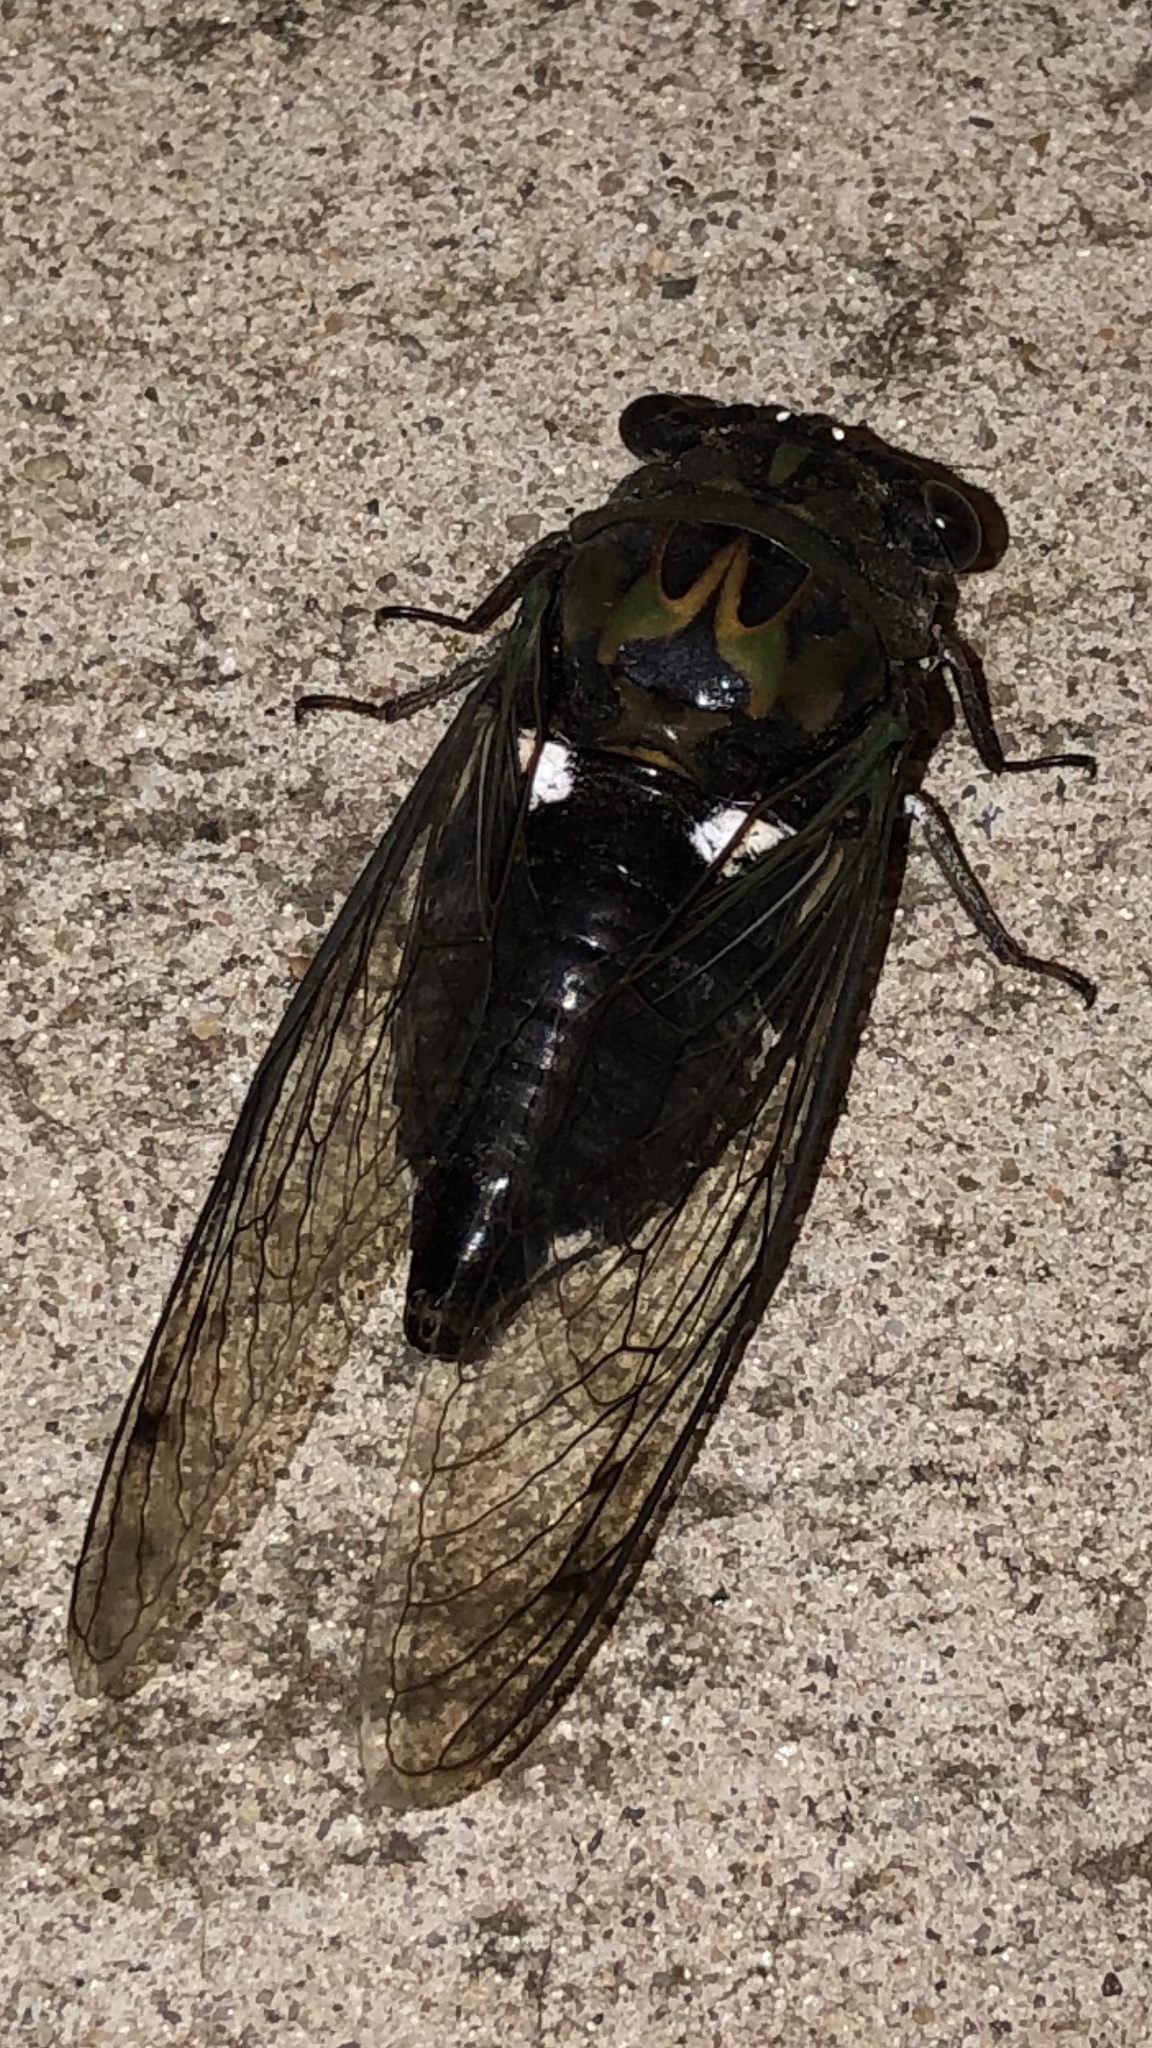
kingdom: Animalia
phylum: Arthropoda
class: Insecta
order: Hemiptera
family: Cicadidae
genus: Neotibicen
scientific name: Neotibicen pruinosus
